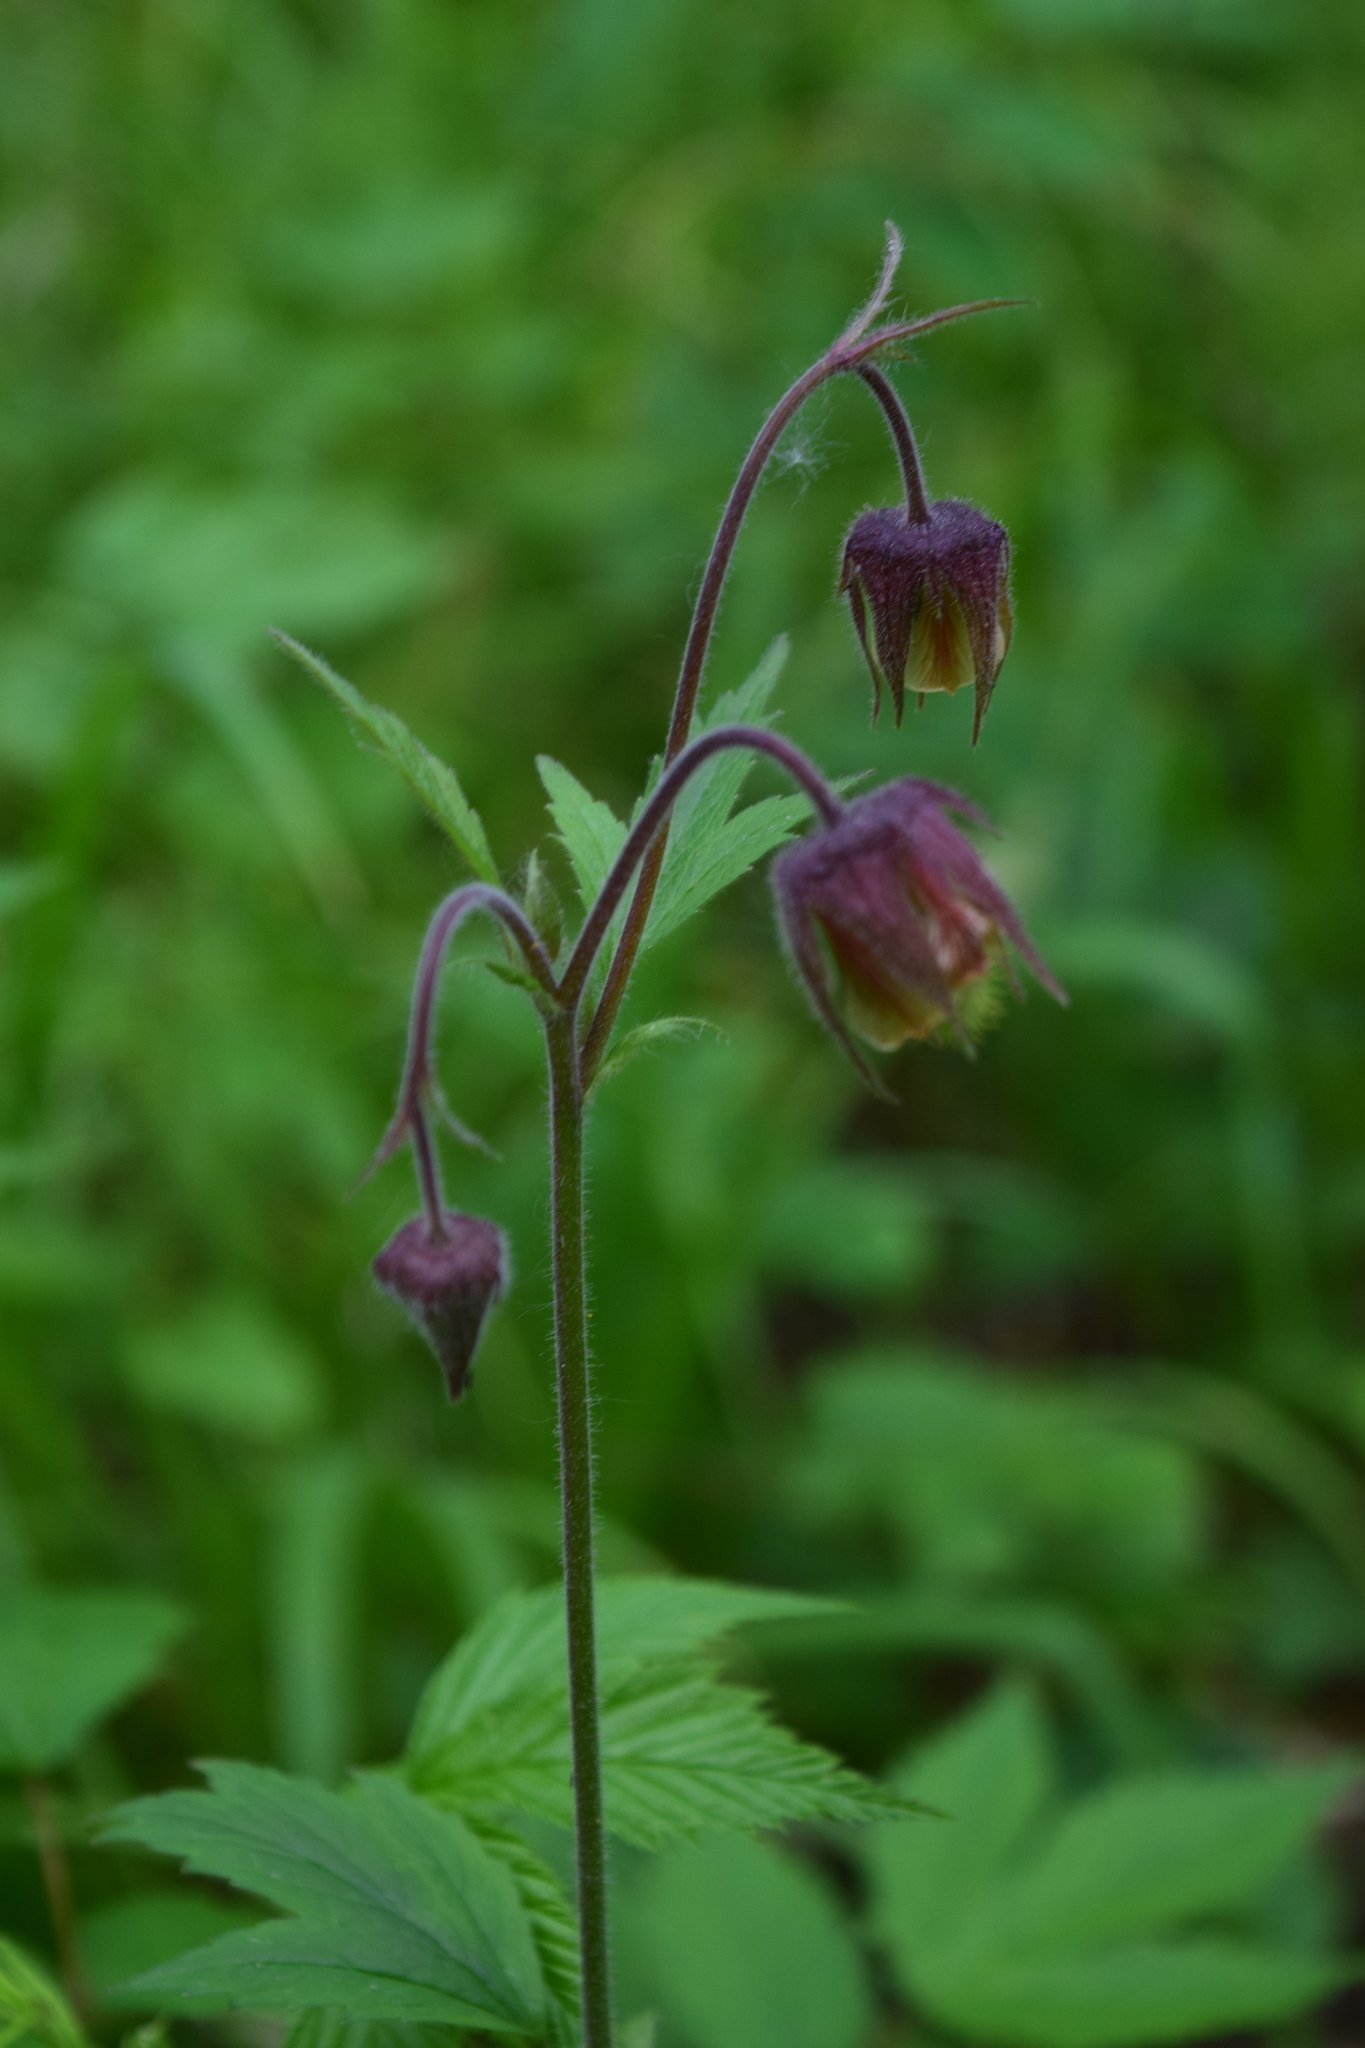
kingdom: Plantae
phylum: Tracheophyta
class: Magnoliopsida
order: Rosales
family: Rosaceae
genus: Geum
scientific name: Geum rivale
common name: Water avens
